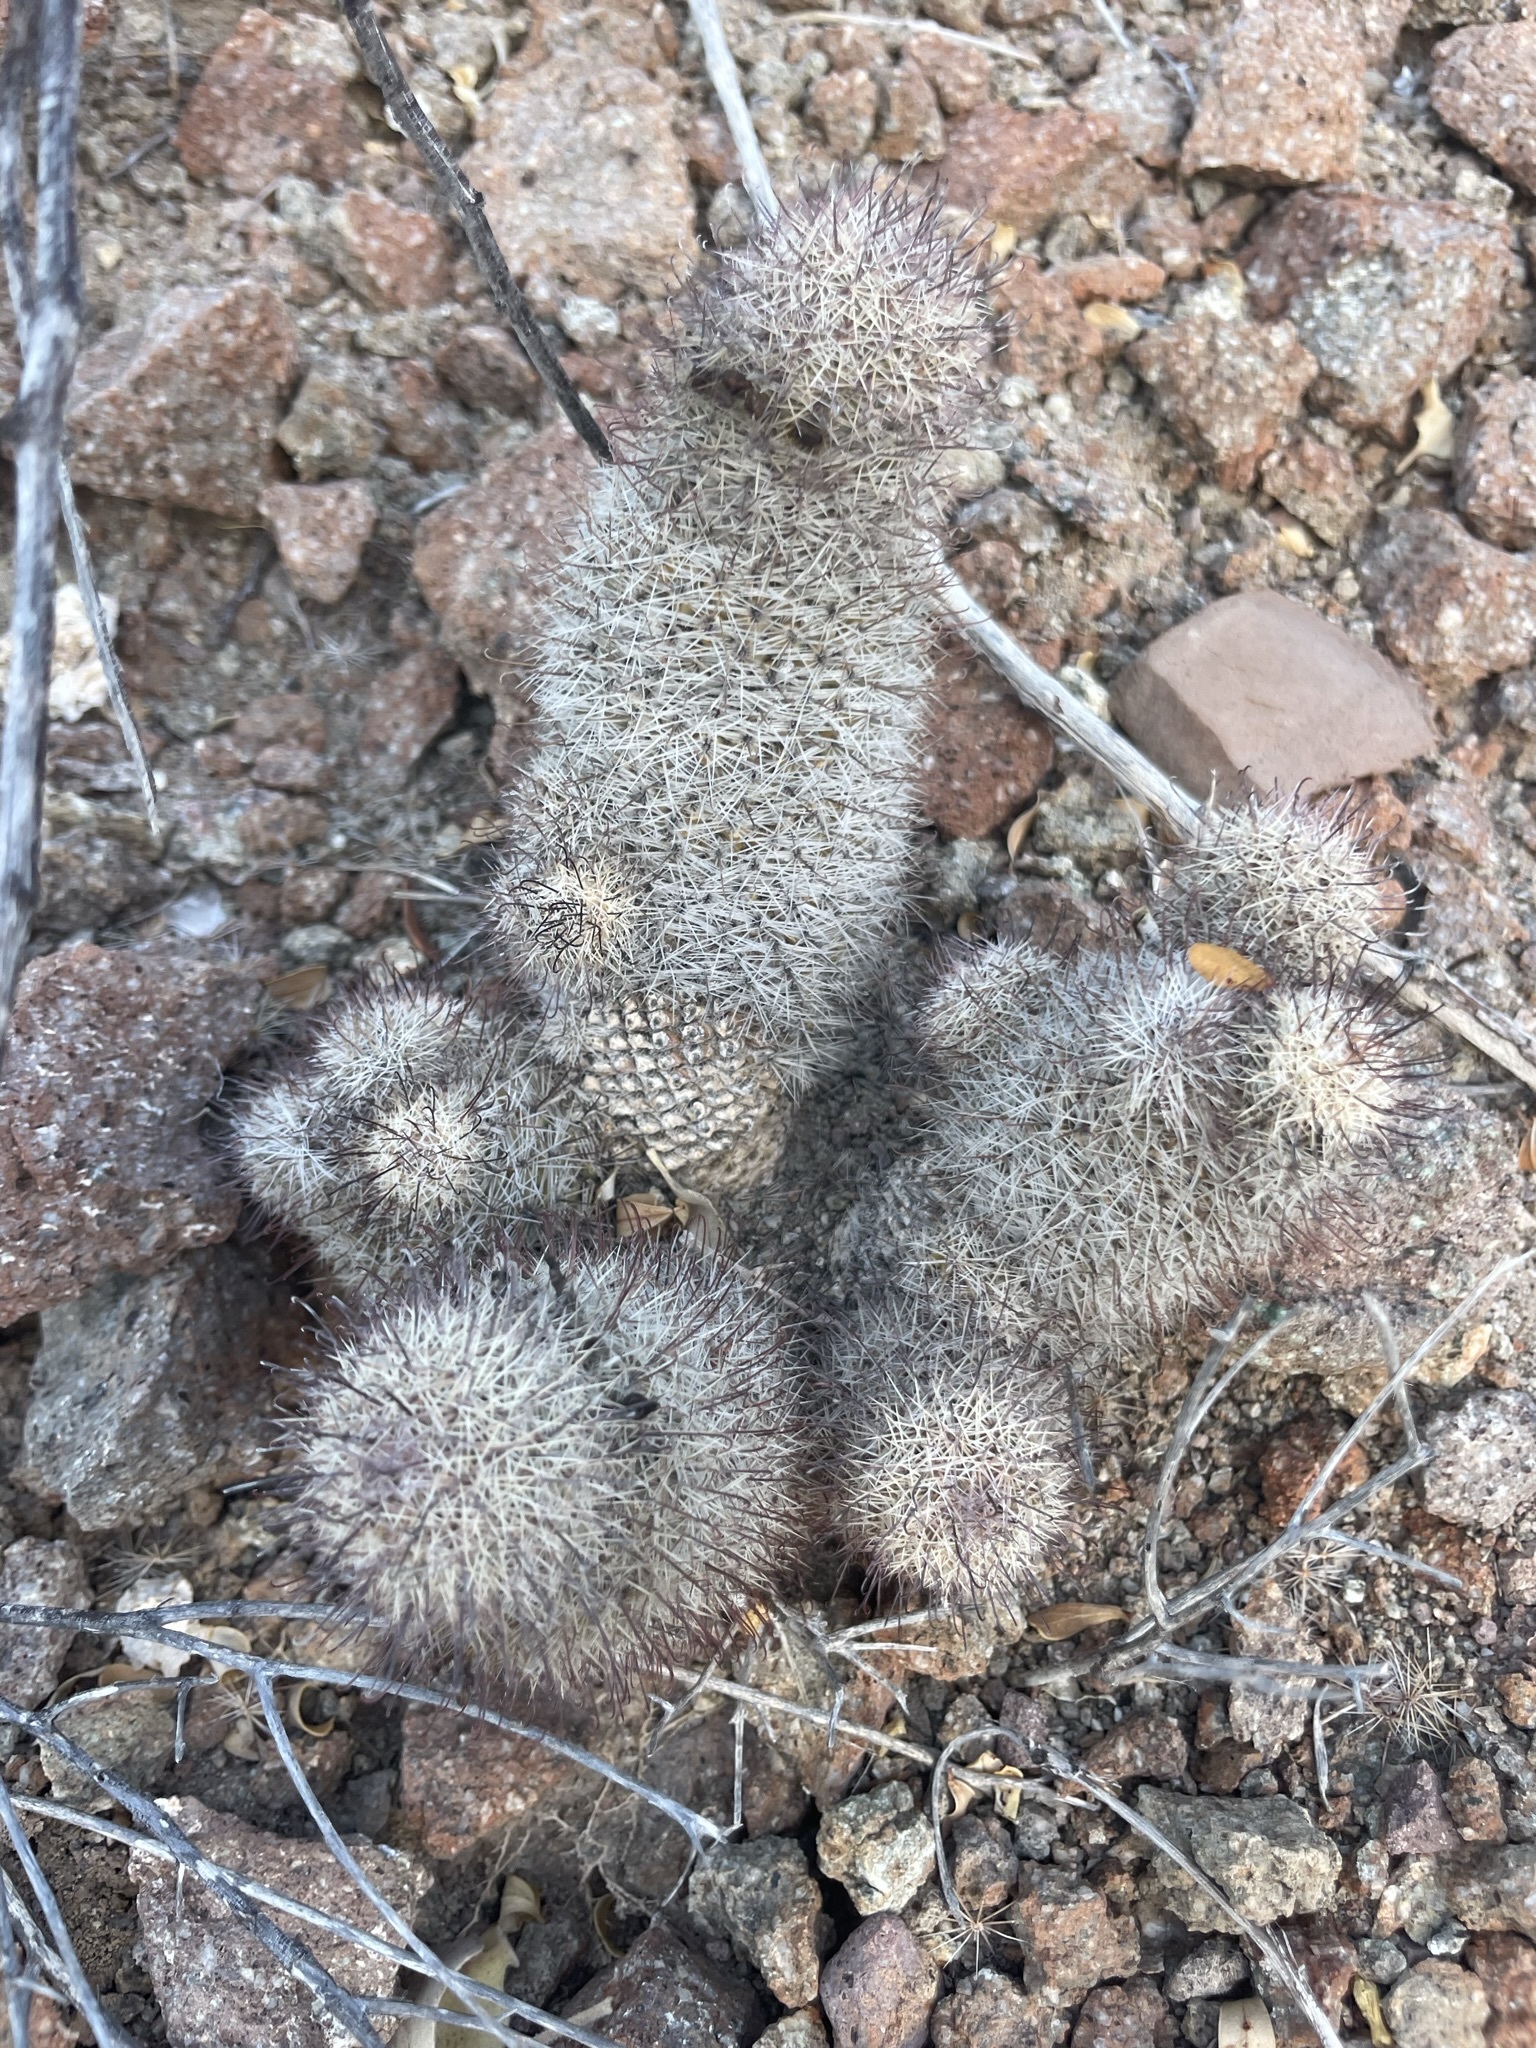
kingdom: Plantae
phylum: Tracheophyta
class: Magnoliopsida
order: Caryophyllales
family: Cactaceae
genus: Cochemiea
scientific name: Cochemiea dioica
